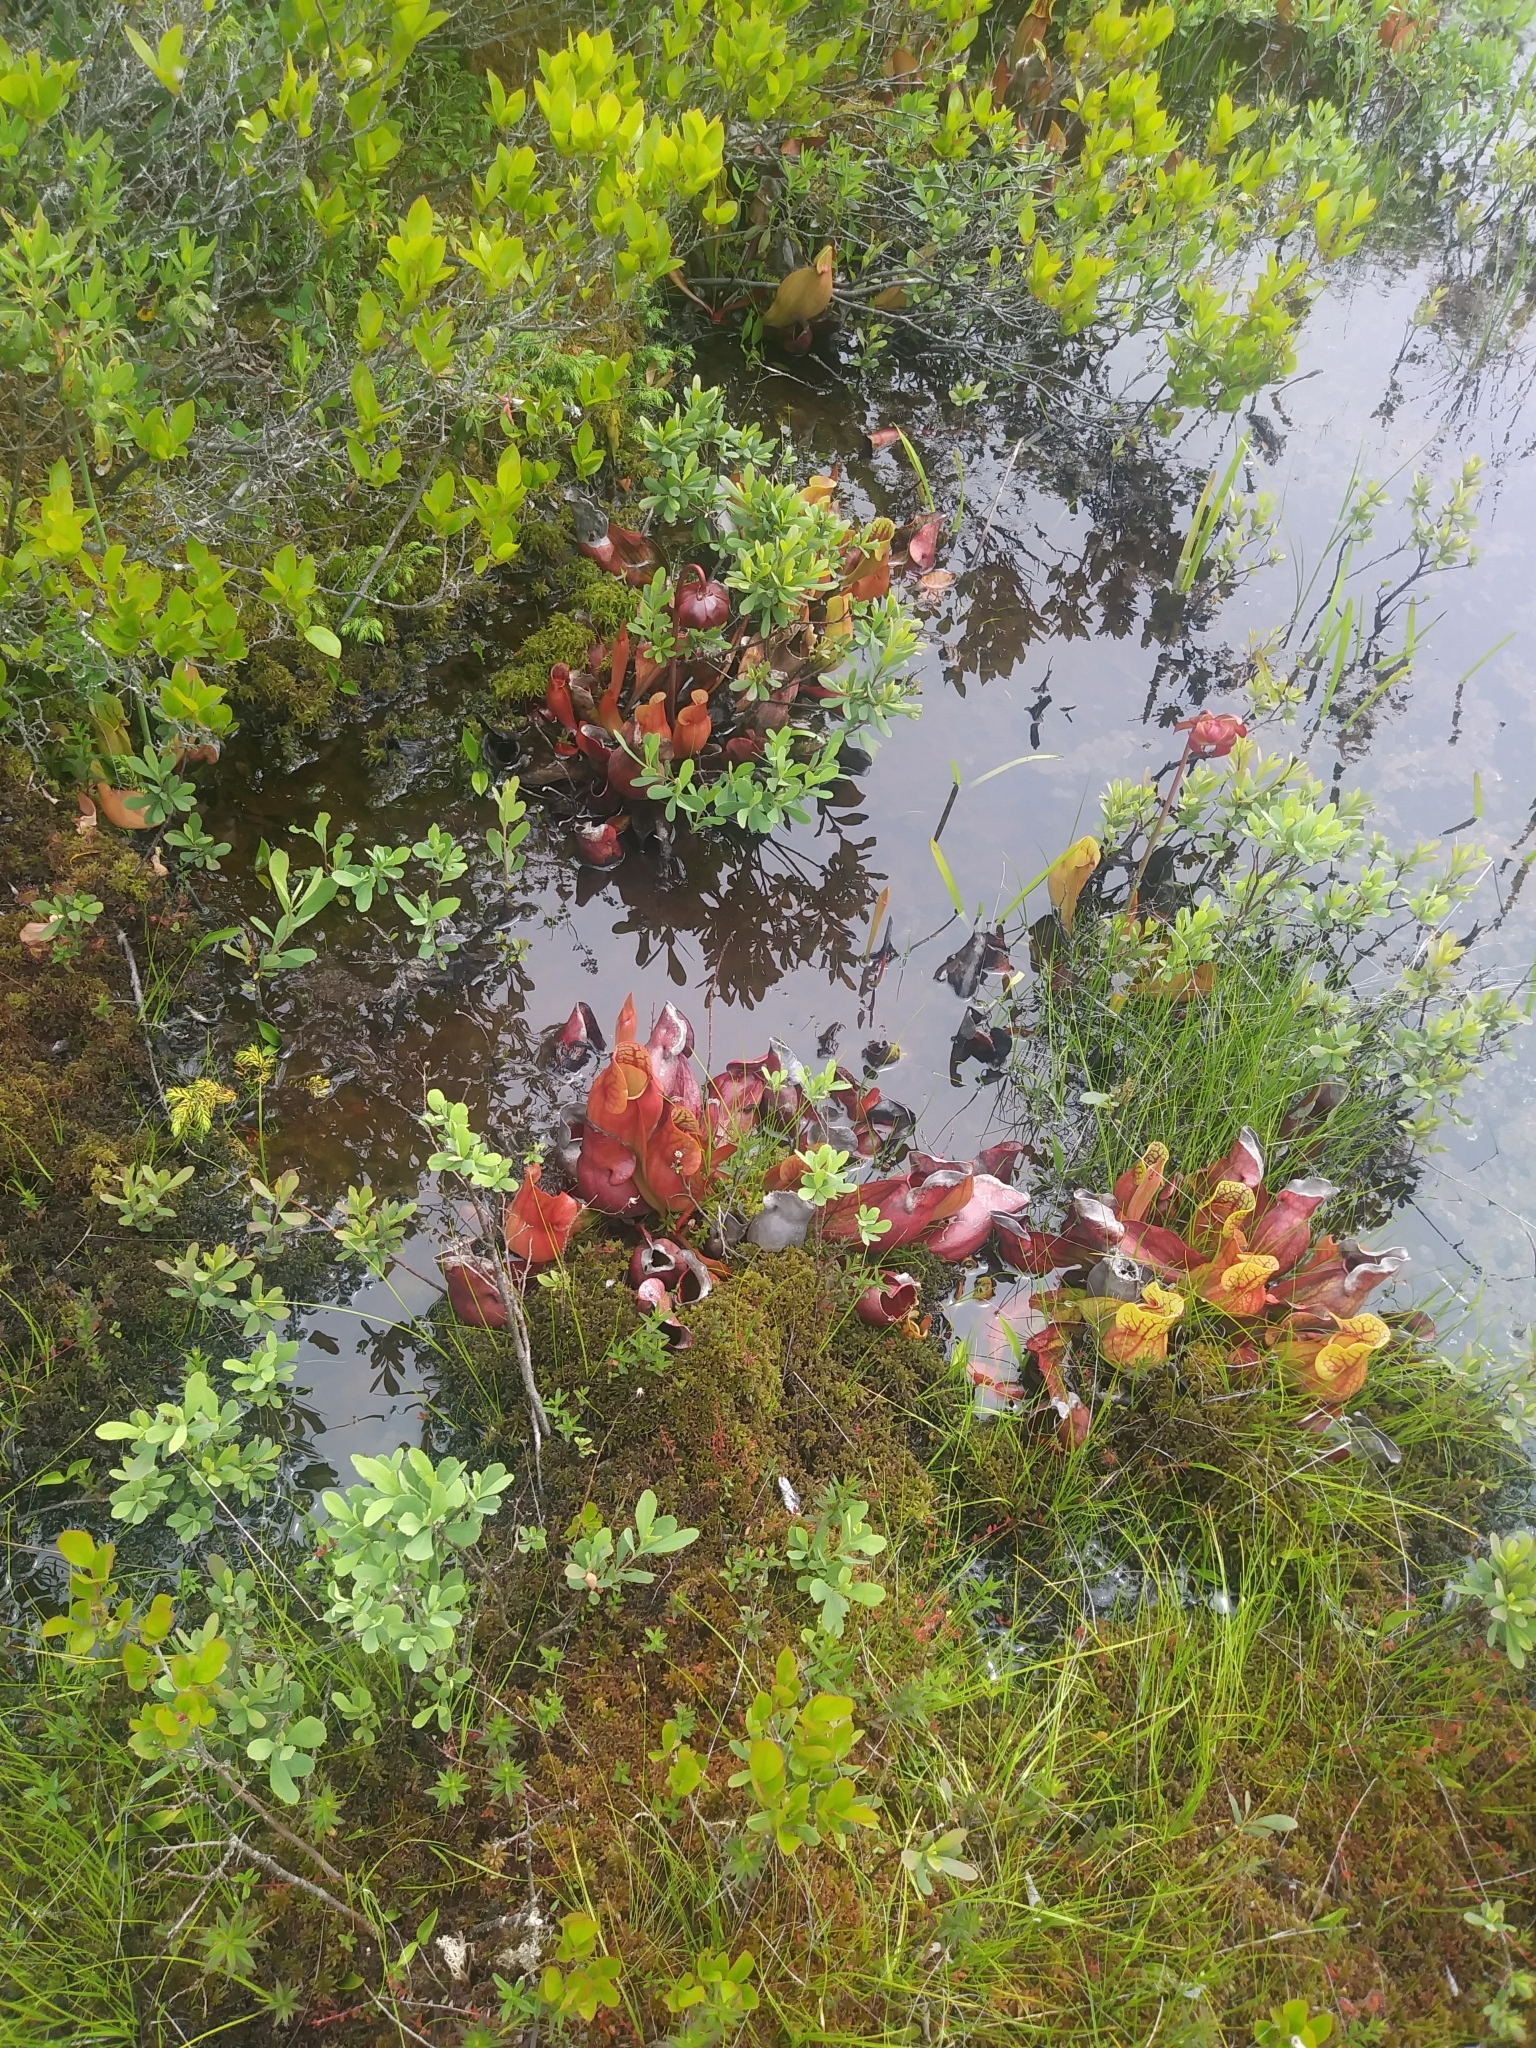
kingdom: Plantae
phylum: Tracheophyta
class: Magnoliopsida
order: Ericales
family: Sarraceniaceae
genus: Sarracenia
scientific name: Sarracenia purpurea
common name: Pitcherplant
